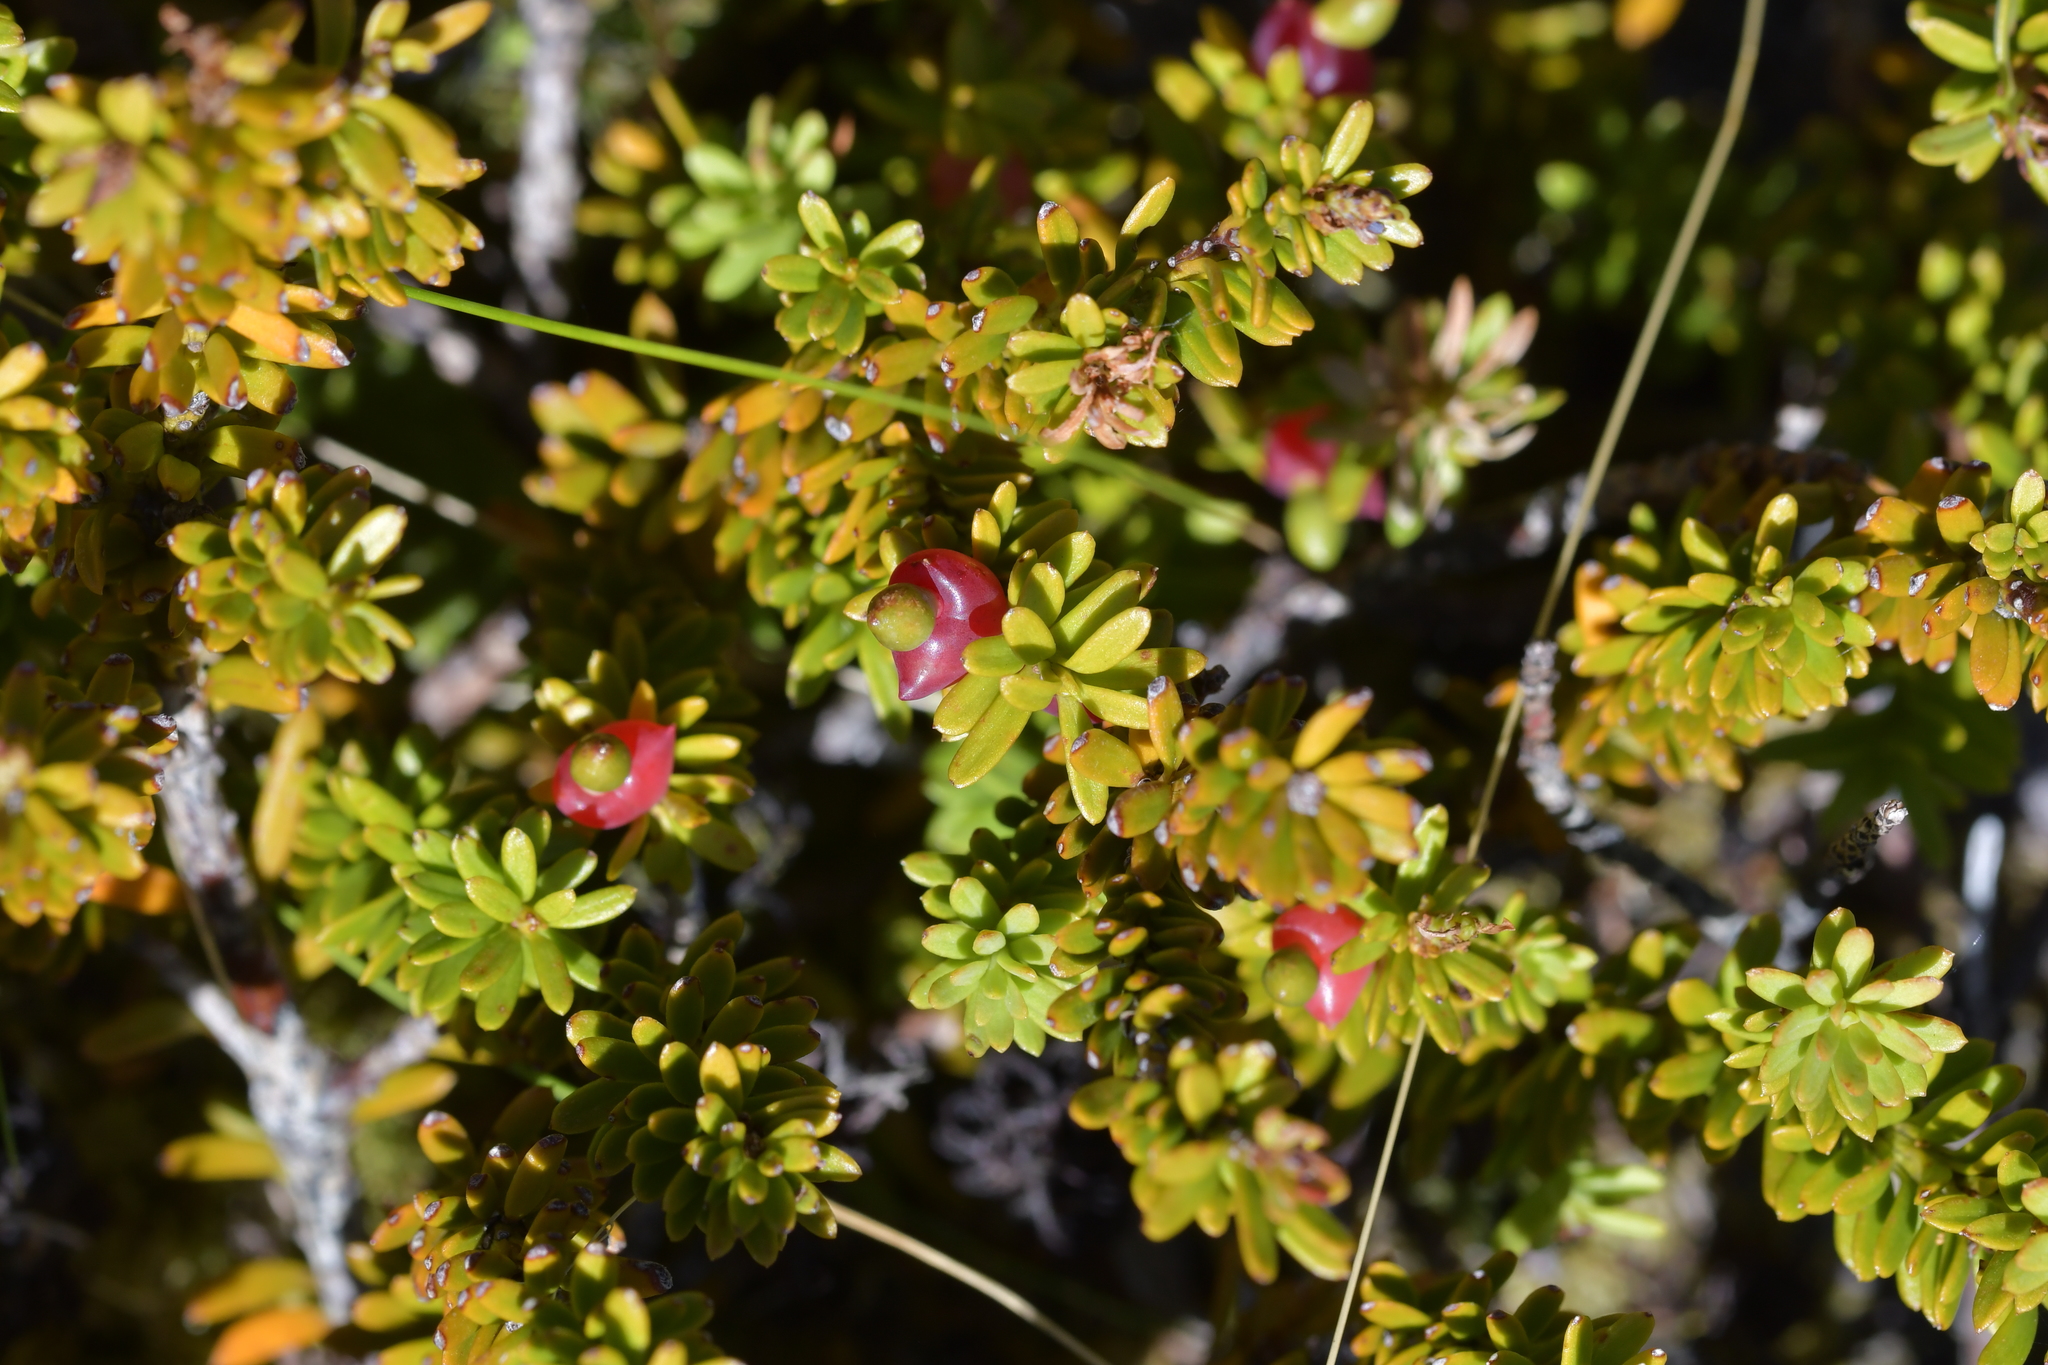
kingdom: Plantae
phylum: Tracheophyta
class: Pinopsida
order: Pinales
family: Podocarpaceae
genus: Podocarpus
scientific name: Podocarpus nivalis
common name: Alpine totara
